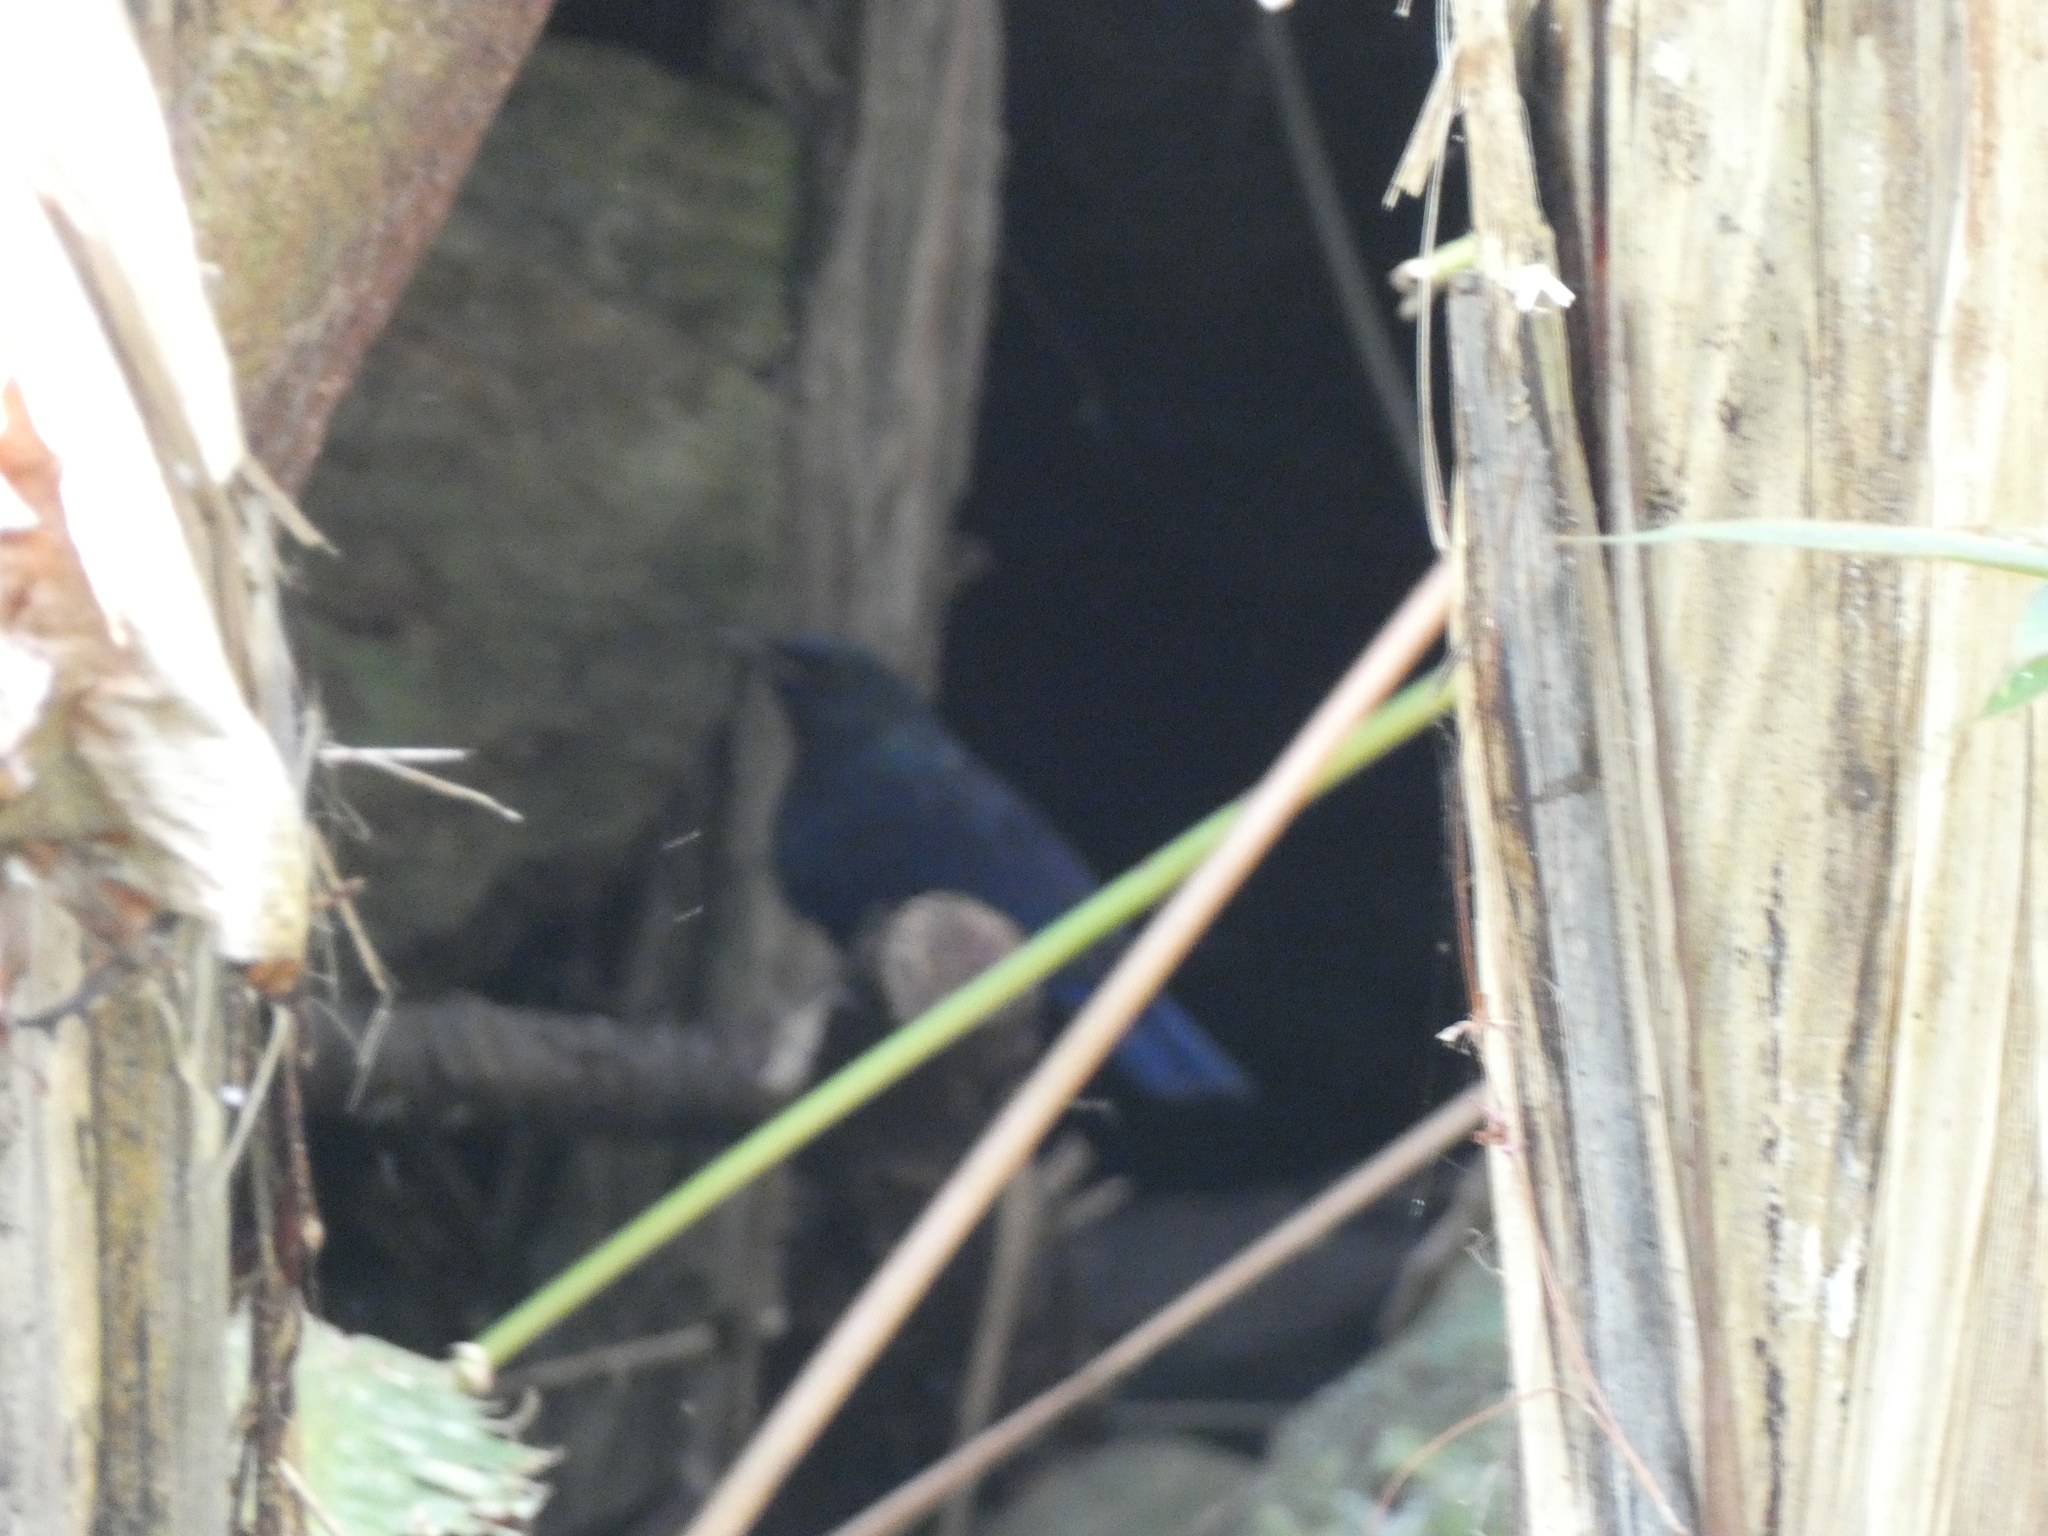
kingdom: Animalia
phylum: Chordata
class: Aves
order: Passeriformes
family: Muscicapidae
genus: Myophonus
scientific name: Myophonus caeruleus
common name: Blue whistling-thrush
